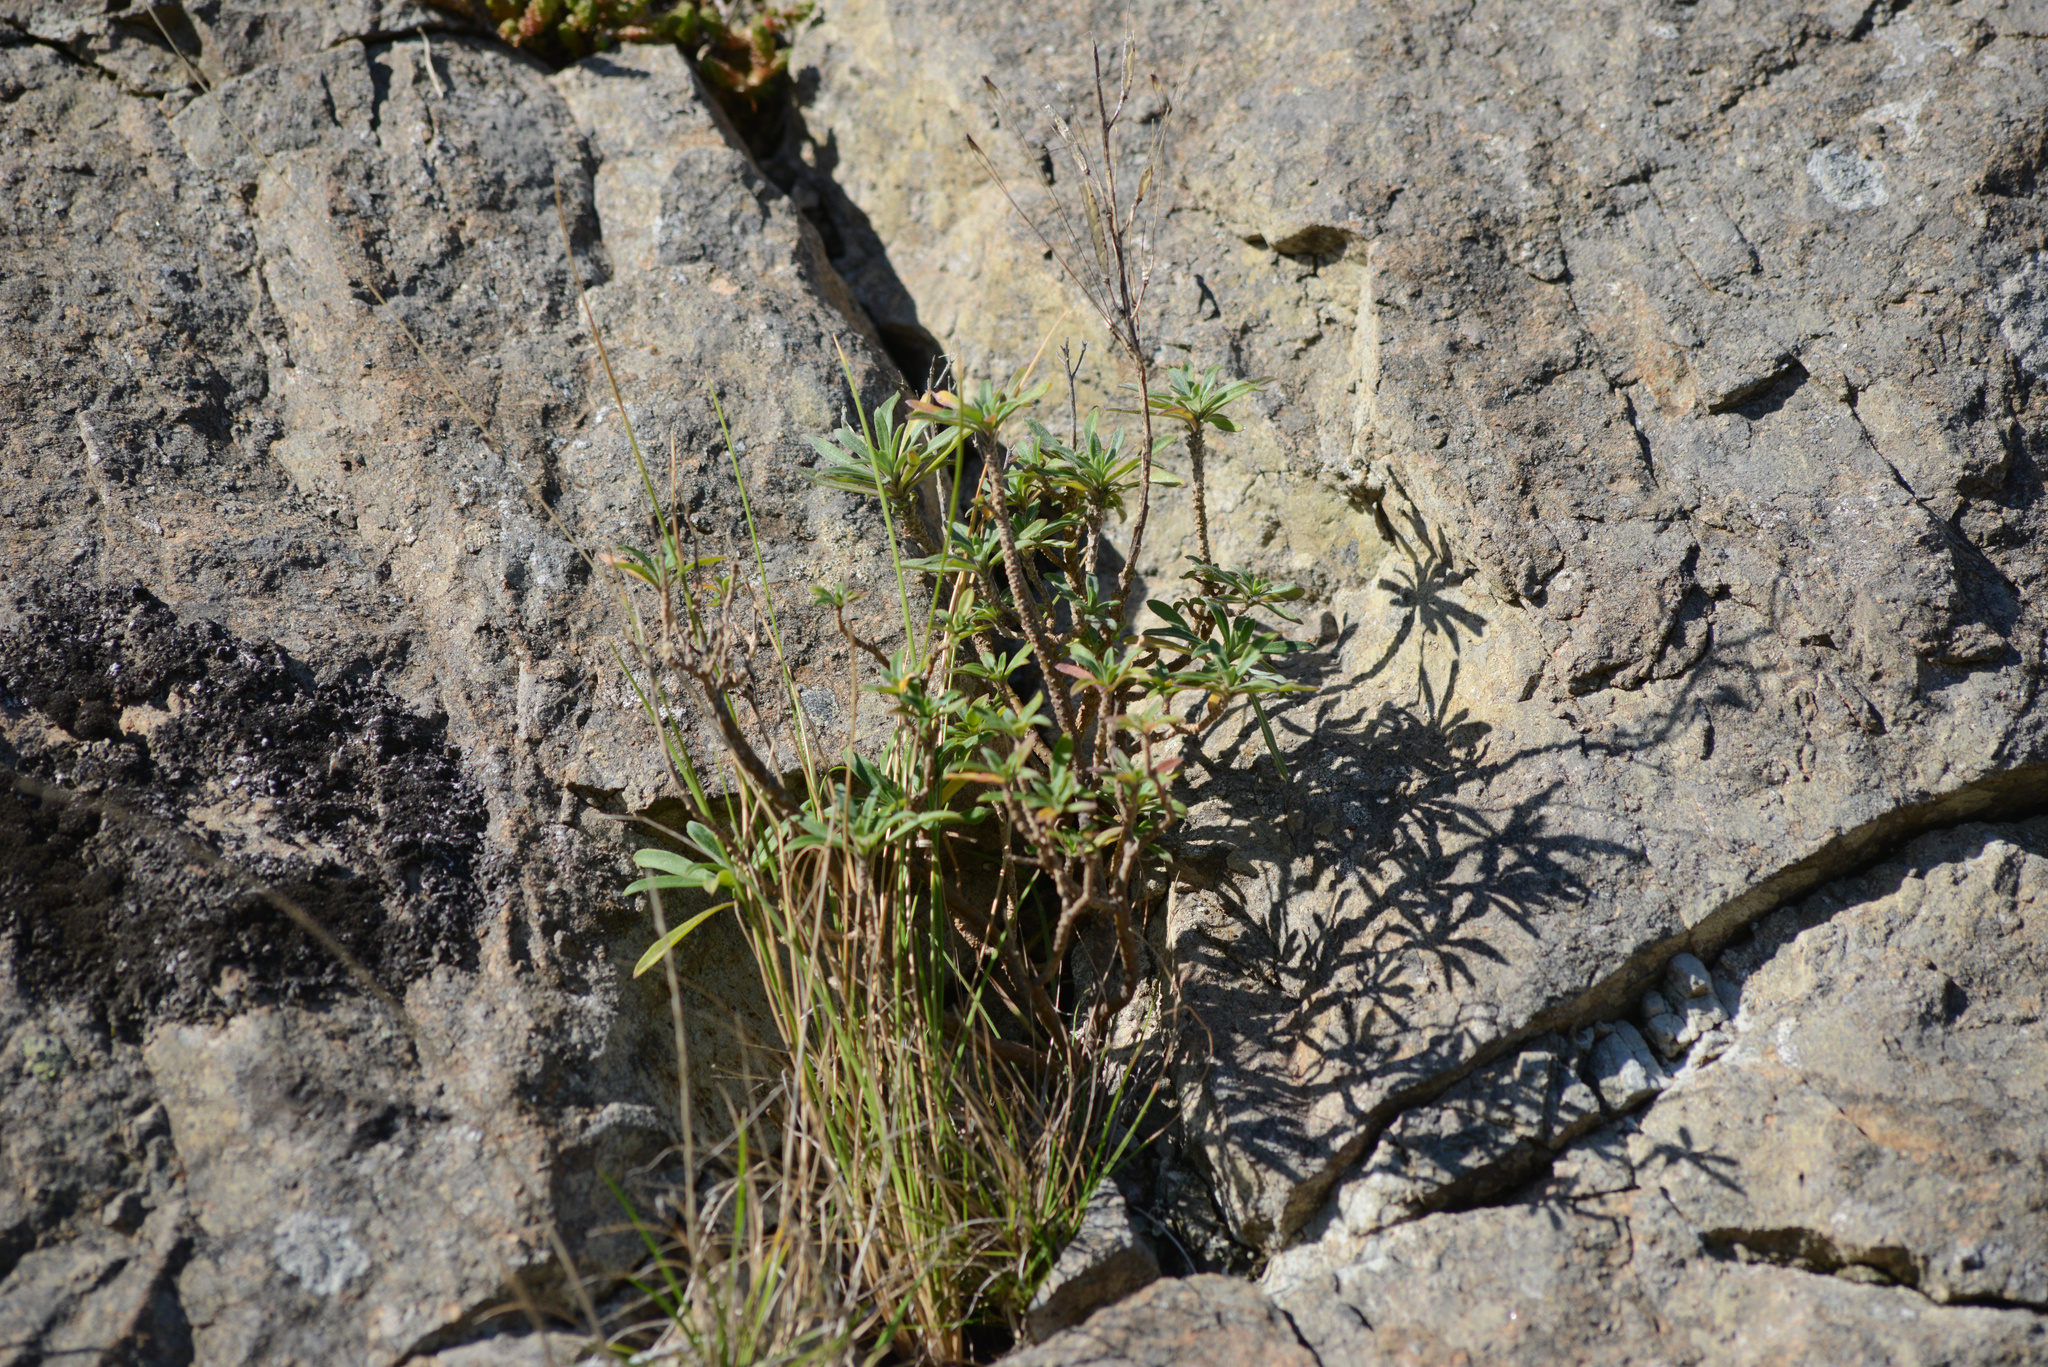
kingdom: Plantae
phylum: Tracheophyta
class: Magnoliopsida
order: Brassicales
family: Brassicaceae
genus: Erysimum
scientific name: Erysimum cheiri
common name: Wallflower
